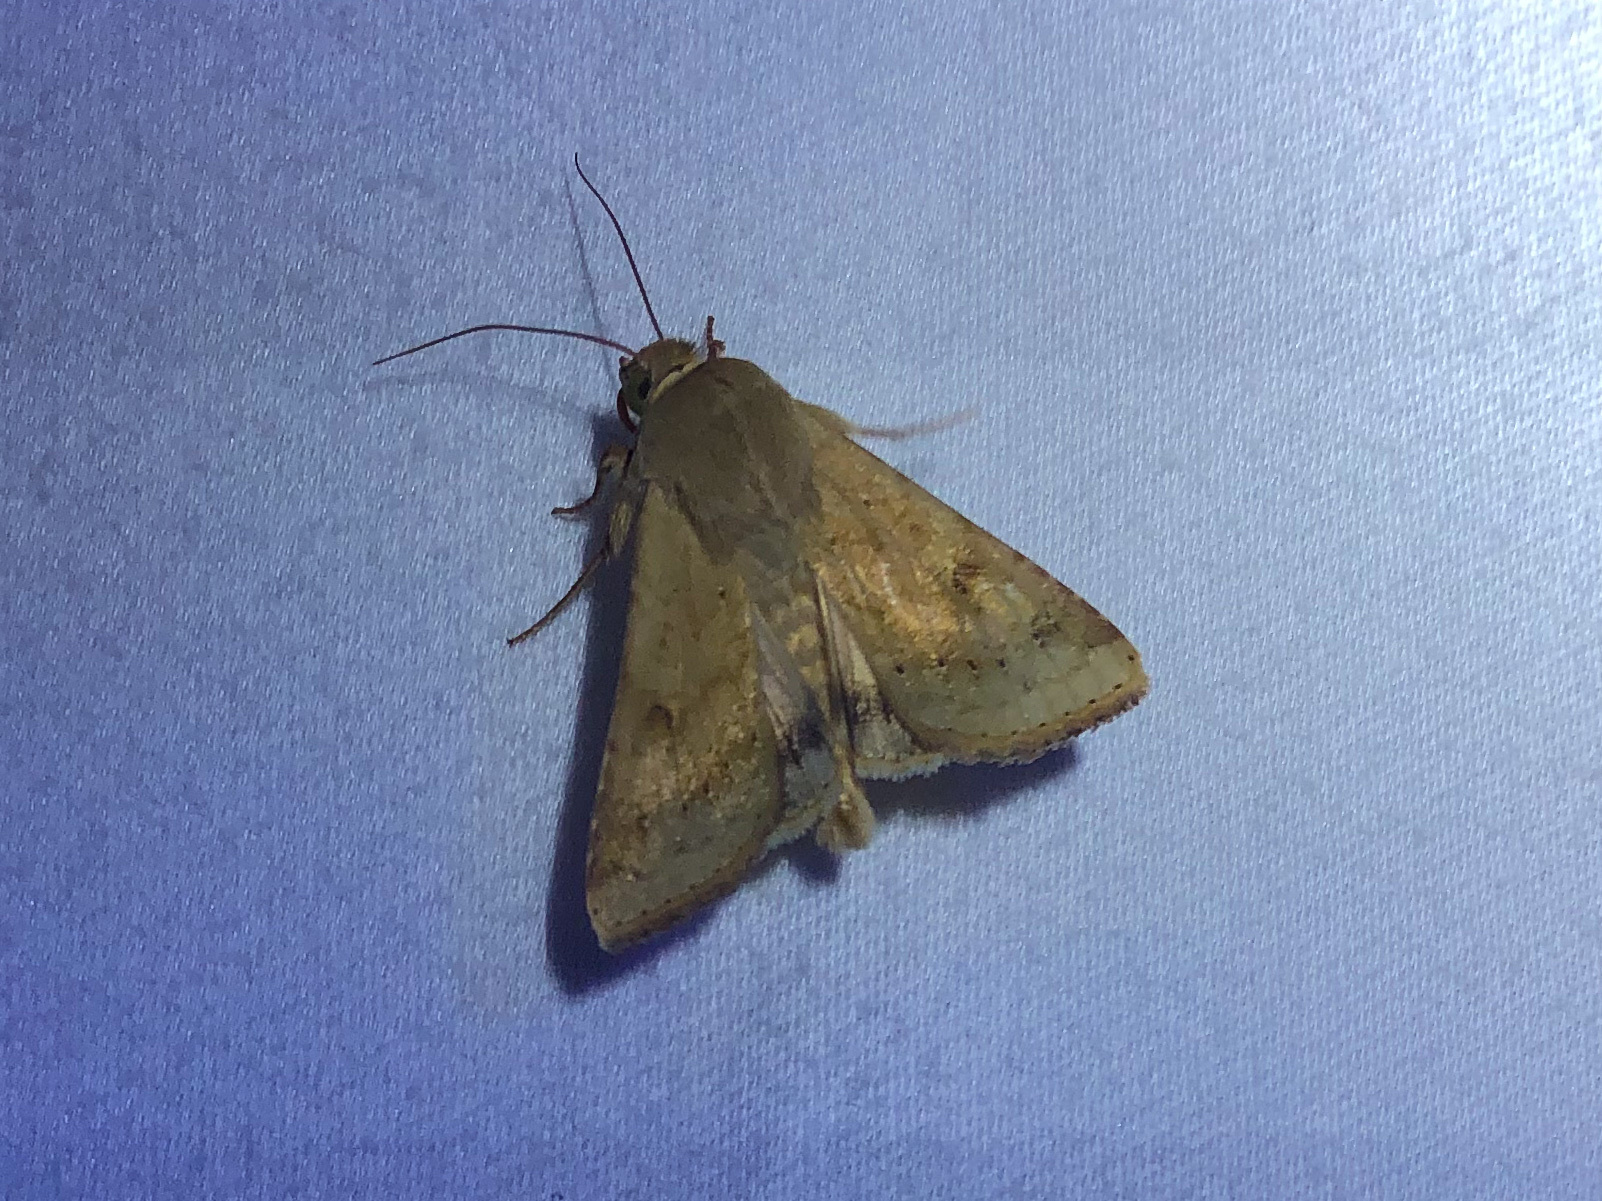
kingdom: Animalia
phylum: Arthropoda
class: Insecta
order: Lepidoptera
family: Noctuidae
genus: Helicoverpa
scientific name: Helicoverpa zea
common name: Bollworm
